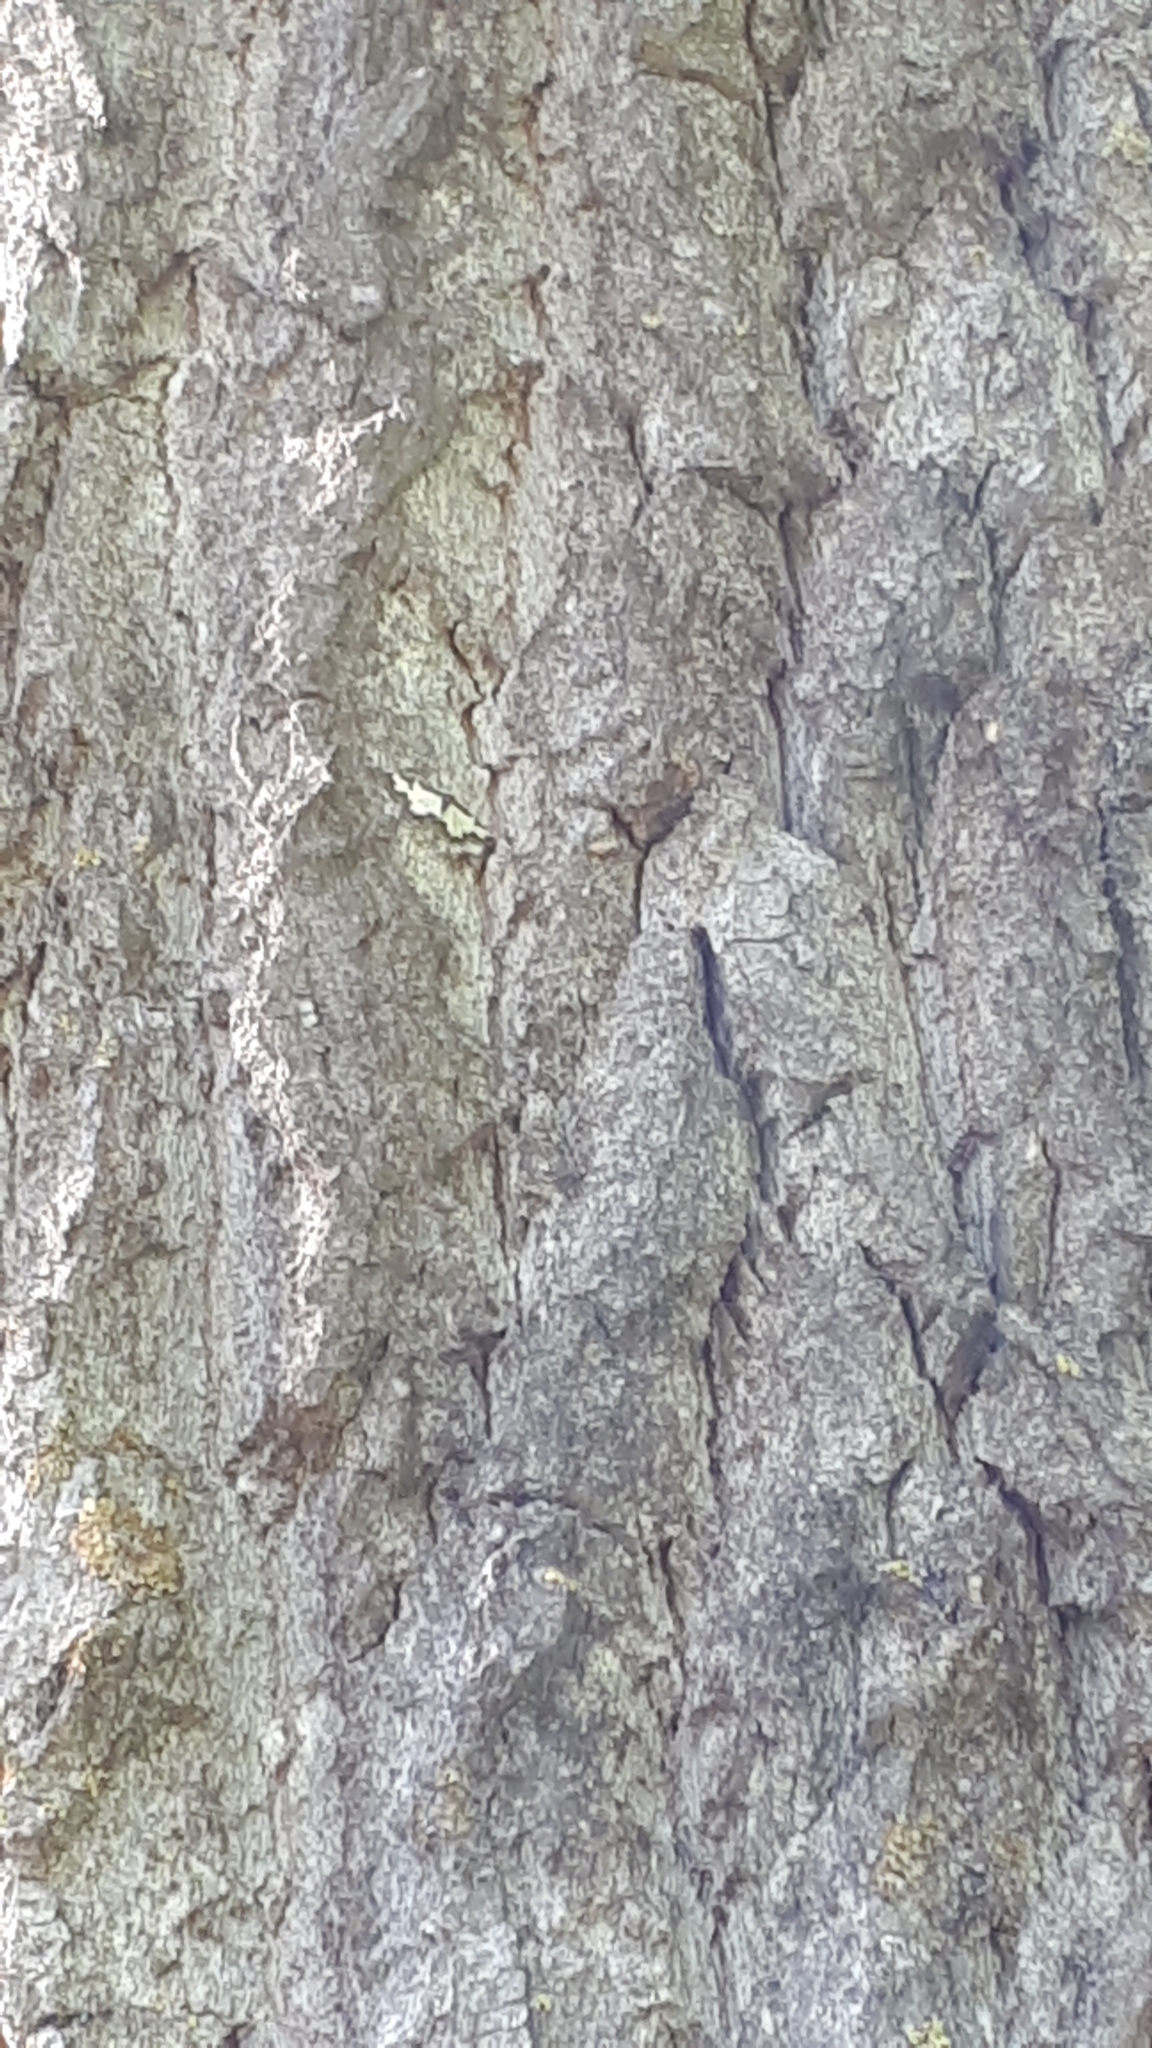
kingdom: Animalia
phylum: Arthropoda
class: Insecta
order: Lepidoptera
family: Geometridae
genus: Lomaspilis
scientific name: Lomaspilis marginata
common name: Clouded border
